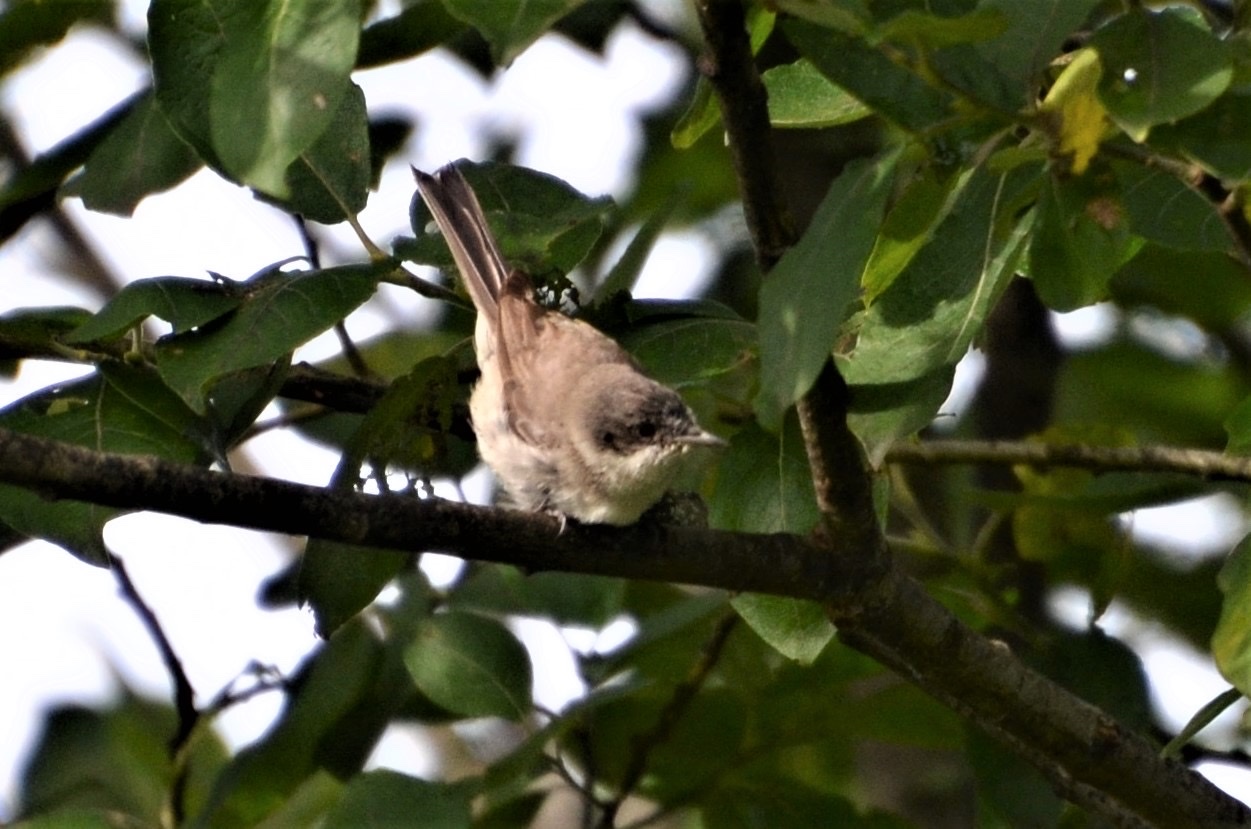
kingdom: Animalia
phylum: Chordata
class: Aves
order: Passeriformes
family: Sylviidae
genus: Sylvia
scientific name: Sylvia curruca
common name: Lesser whitethroat
